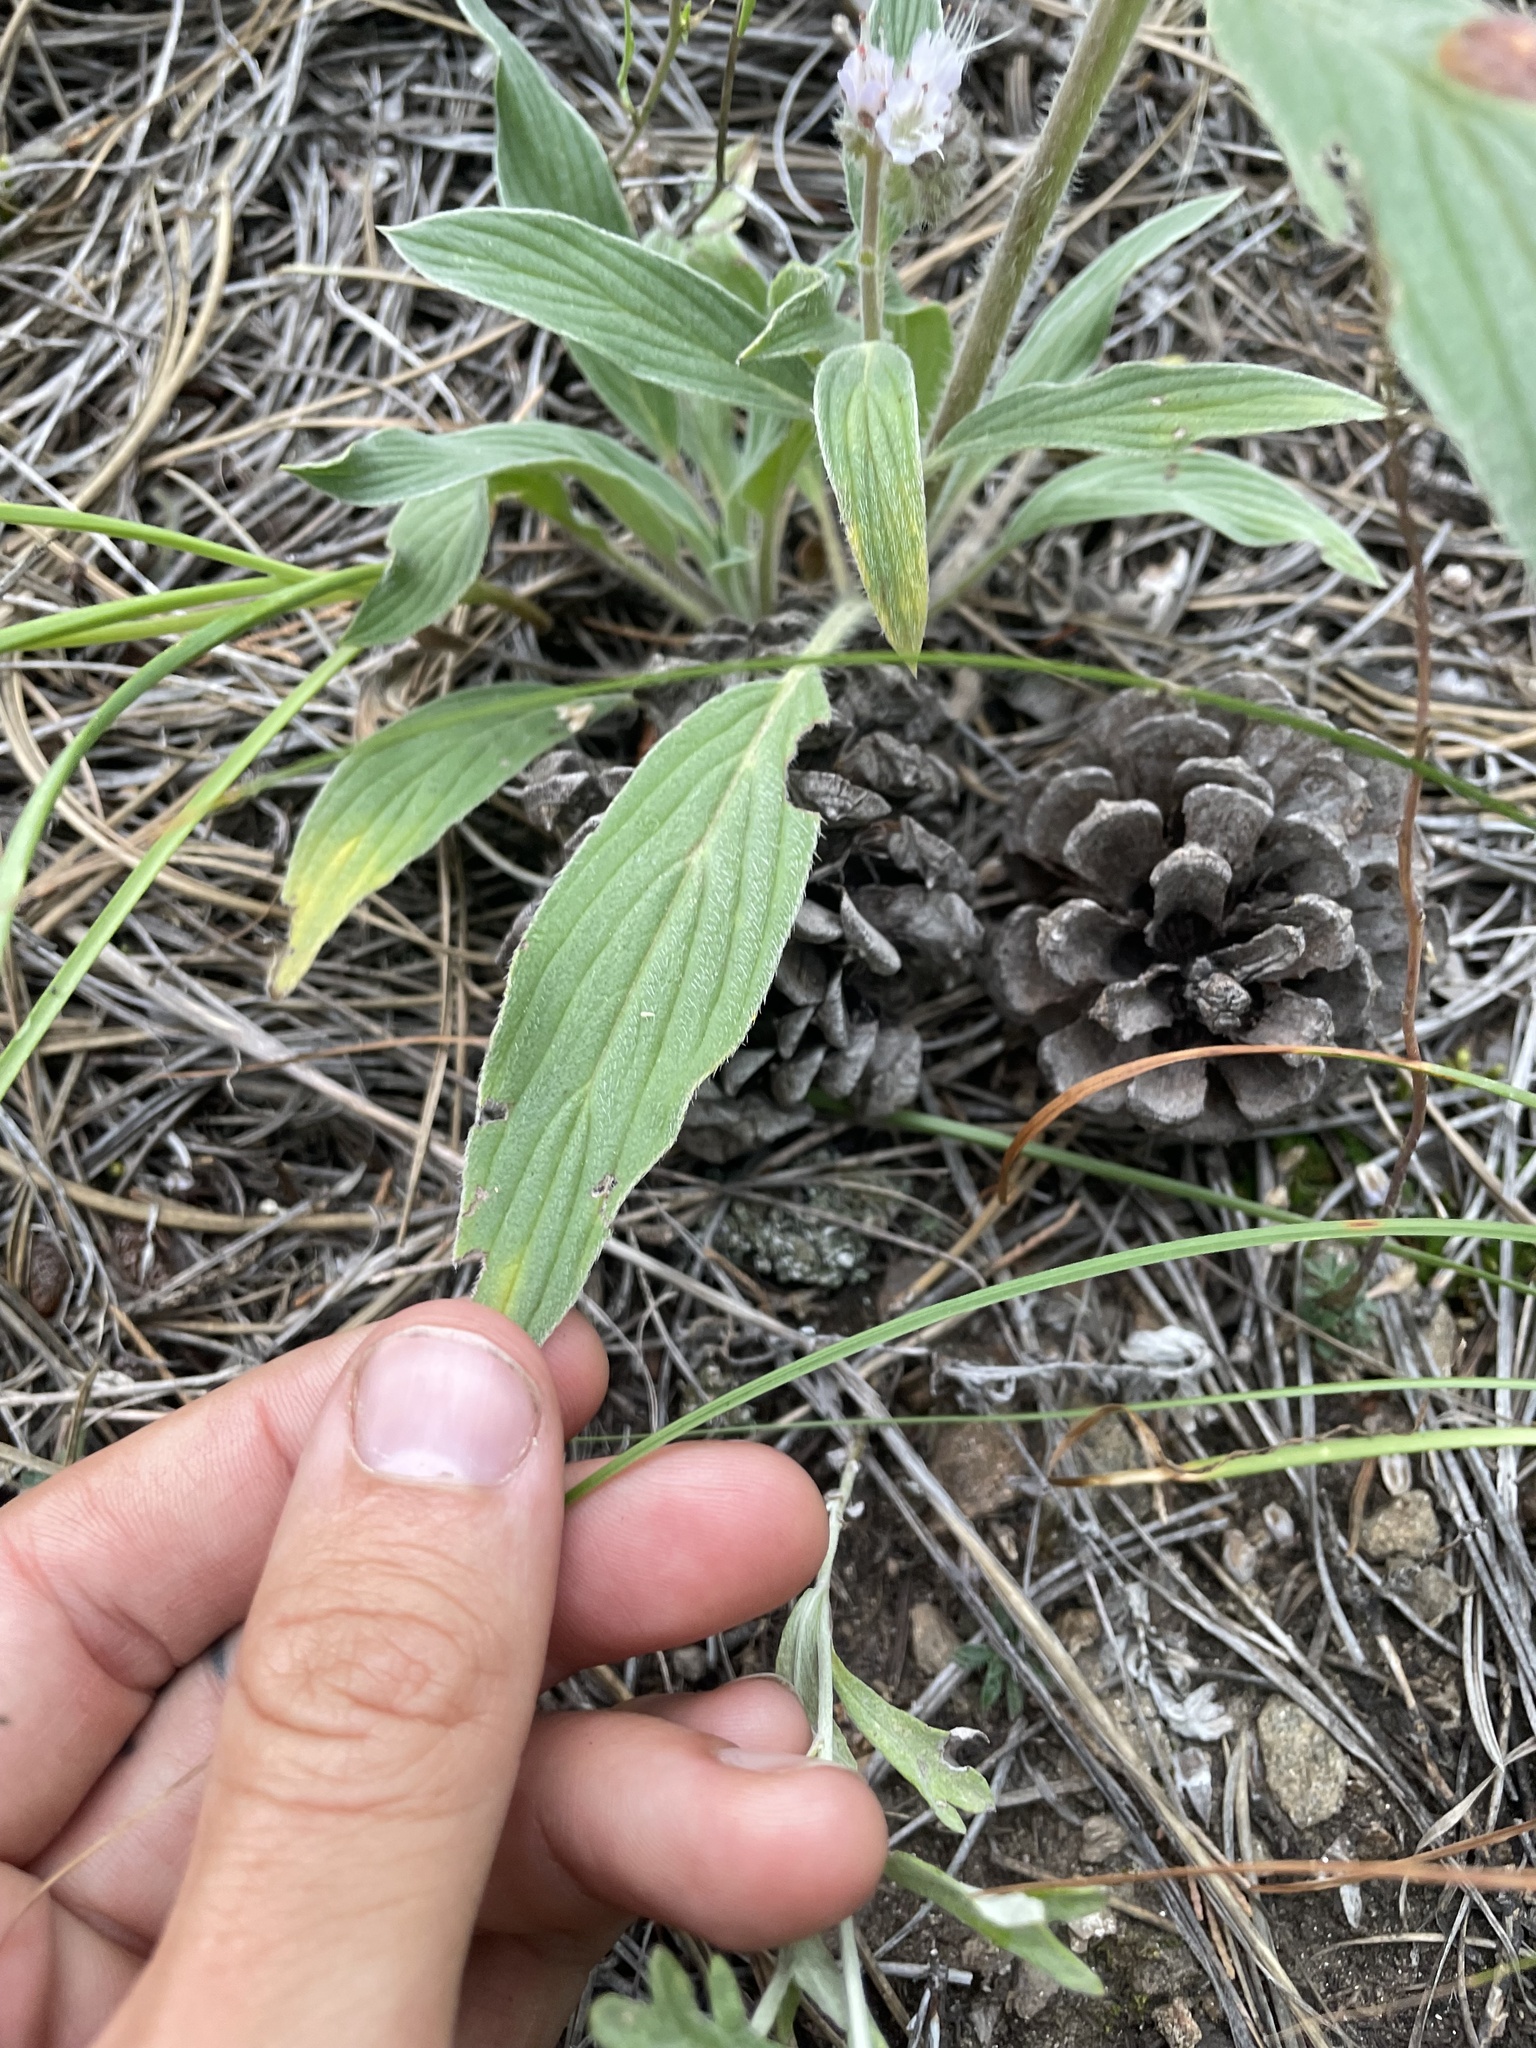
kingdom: Plantae
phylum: Tracheophyta
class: Magnoliopsida
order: Boraginales
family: Hydrophyllaceae
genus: Phacelia
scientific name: Phacelia hastata
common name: Silver-leaved phacelia
